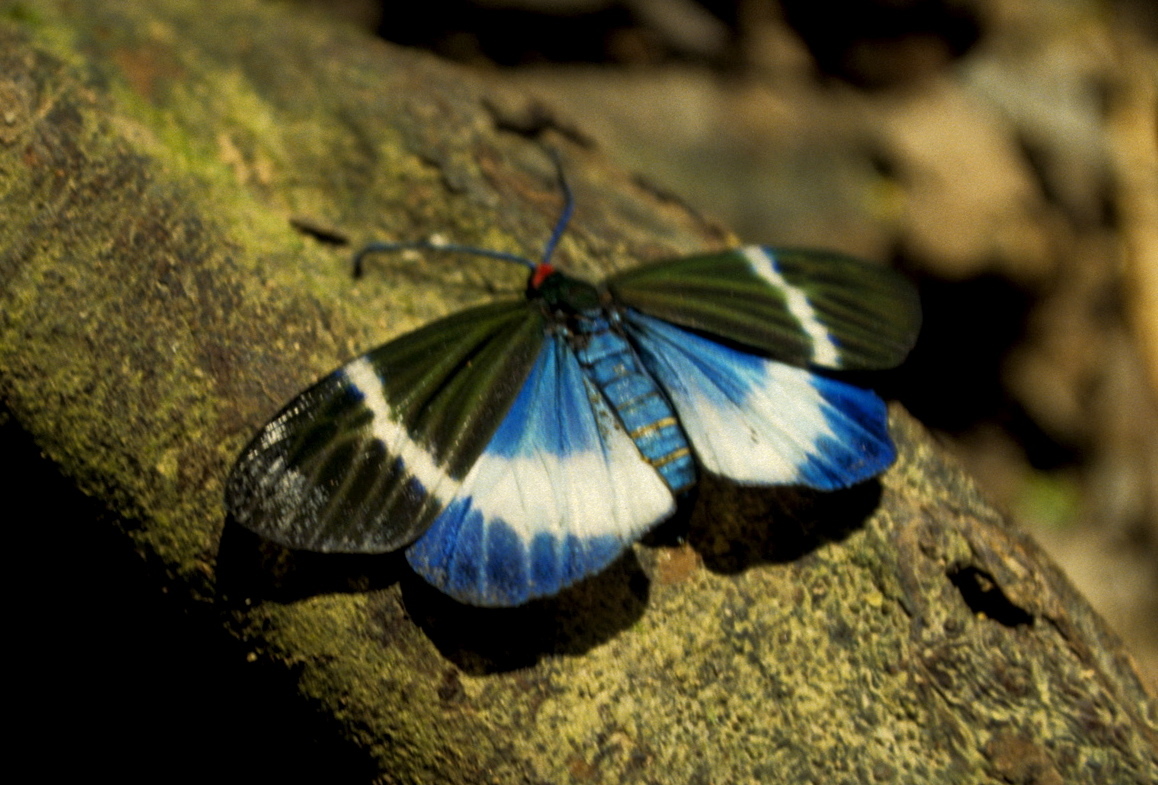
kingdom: Animalia
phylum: Arthropoda
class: Insecta
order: Lepidoptera
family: Zygaenidae
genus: Chalcosia
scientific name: Chalcosia
